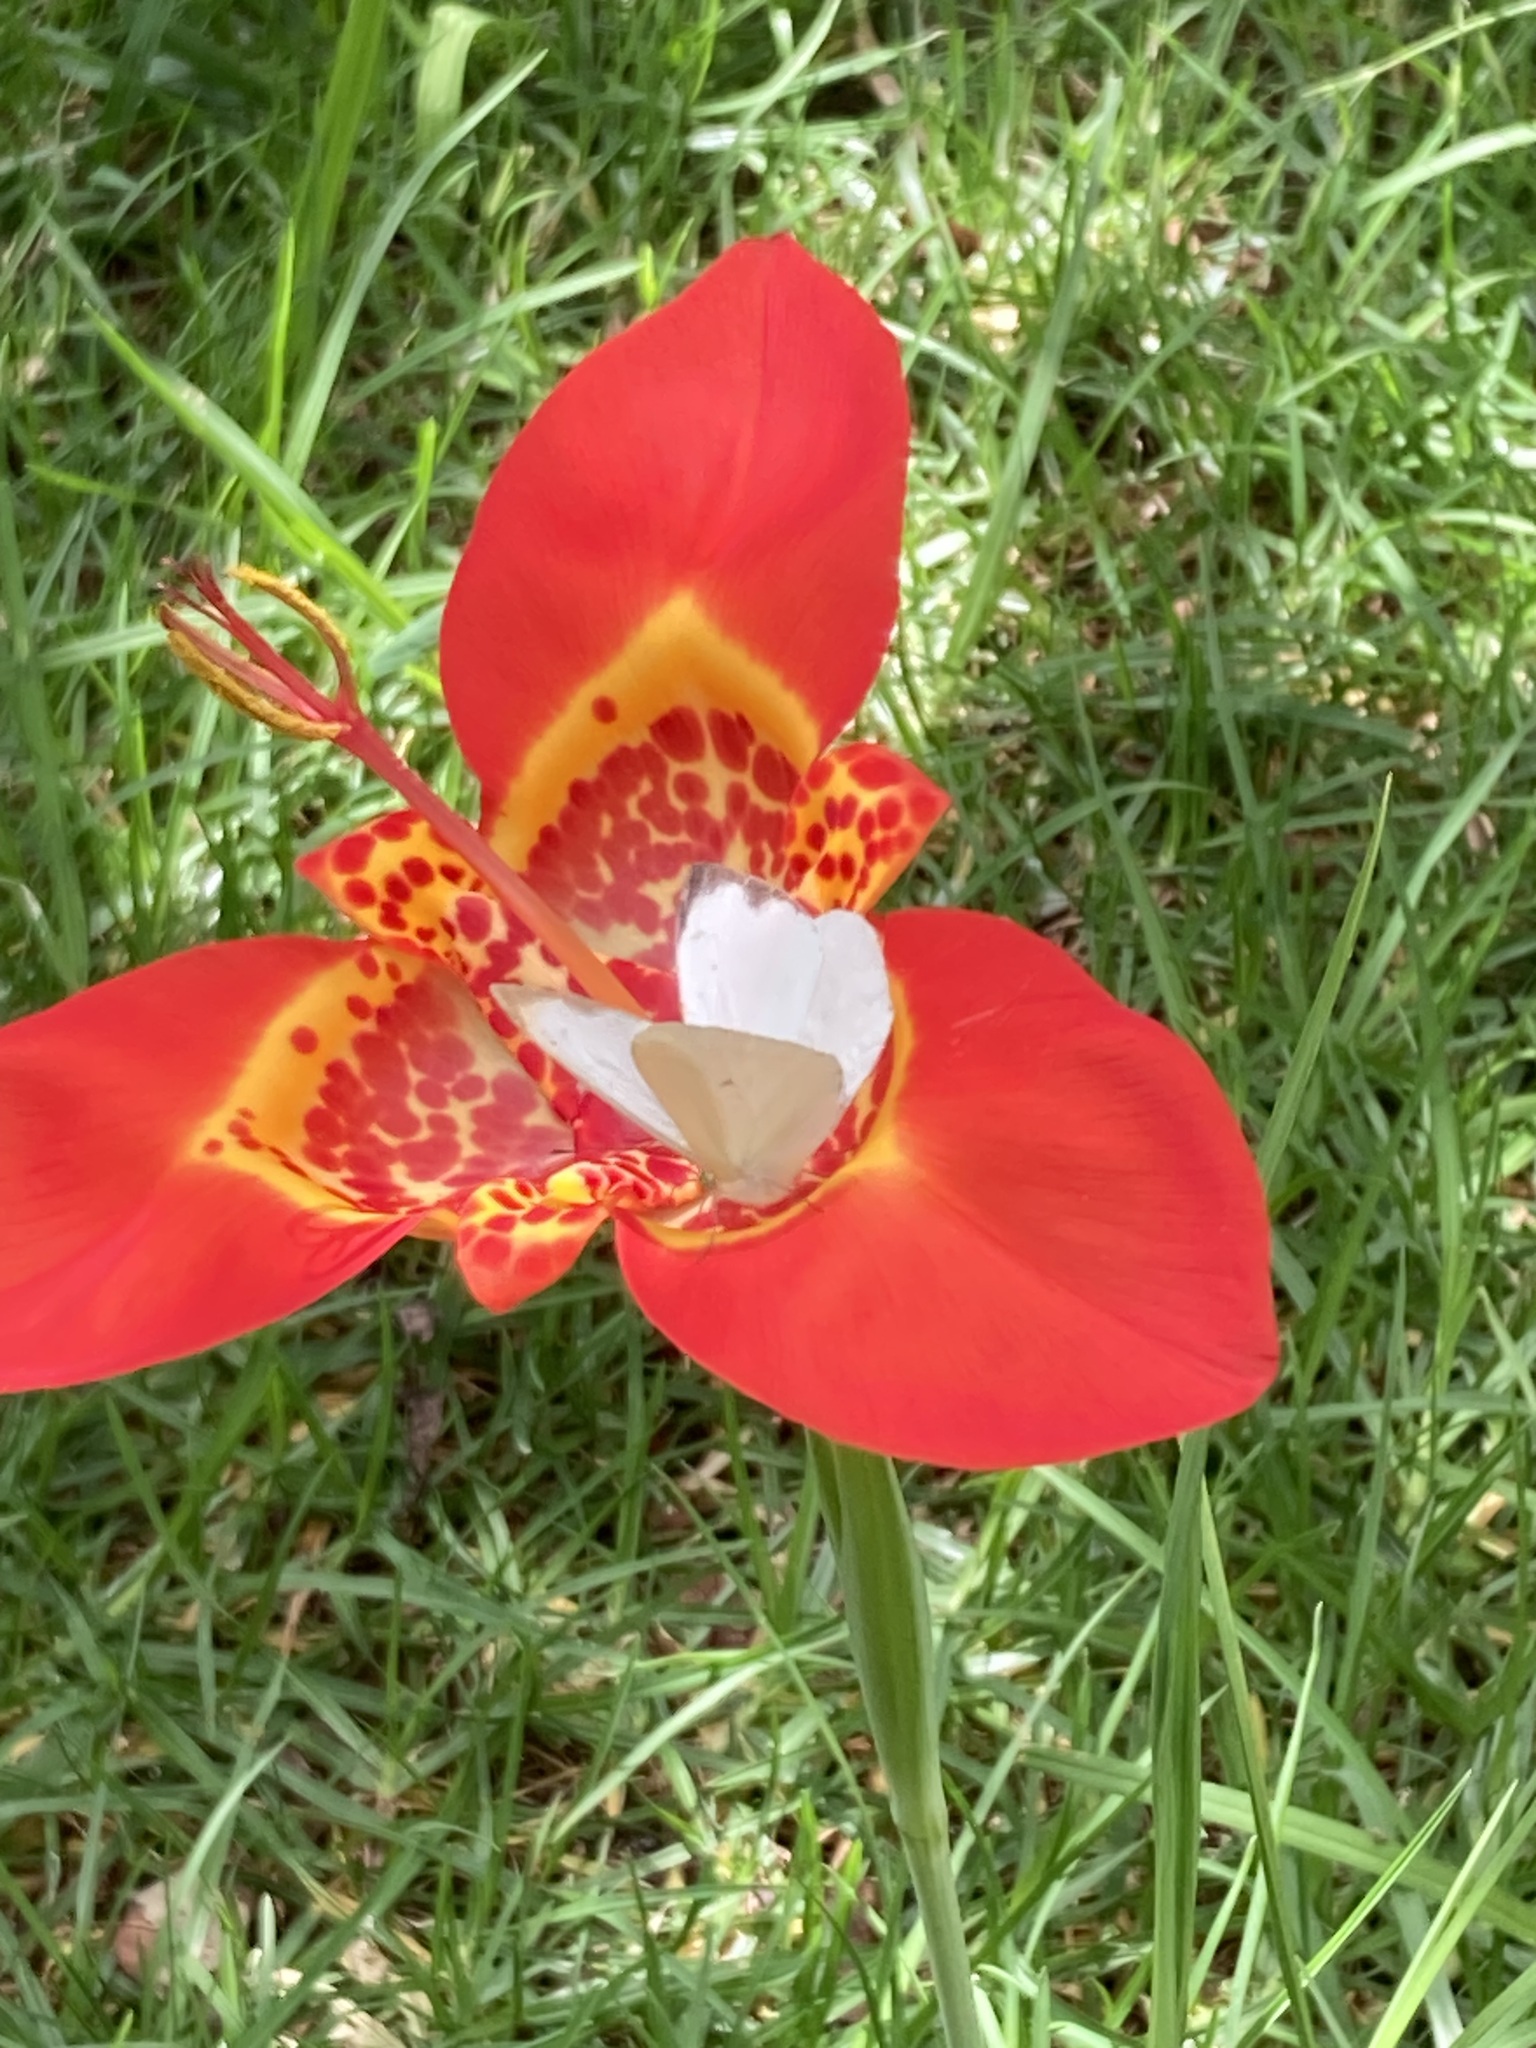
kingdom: Animalia
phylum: Arthropoda
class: Insecta
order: Lepidoptera
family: Pieridae
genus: Leptophobia
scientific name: Leptophobia aripa
